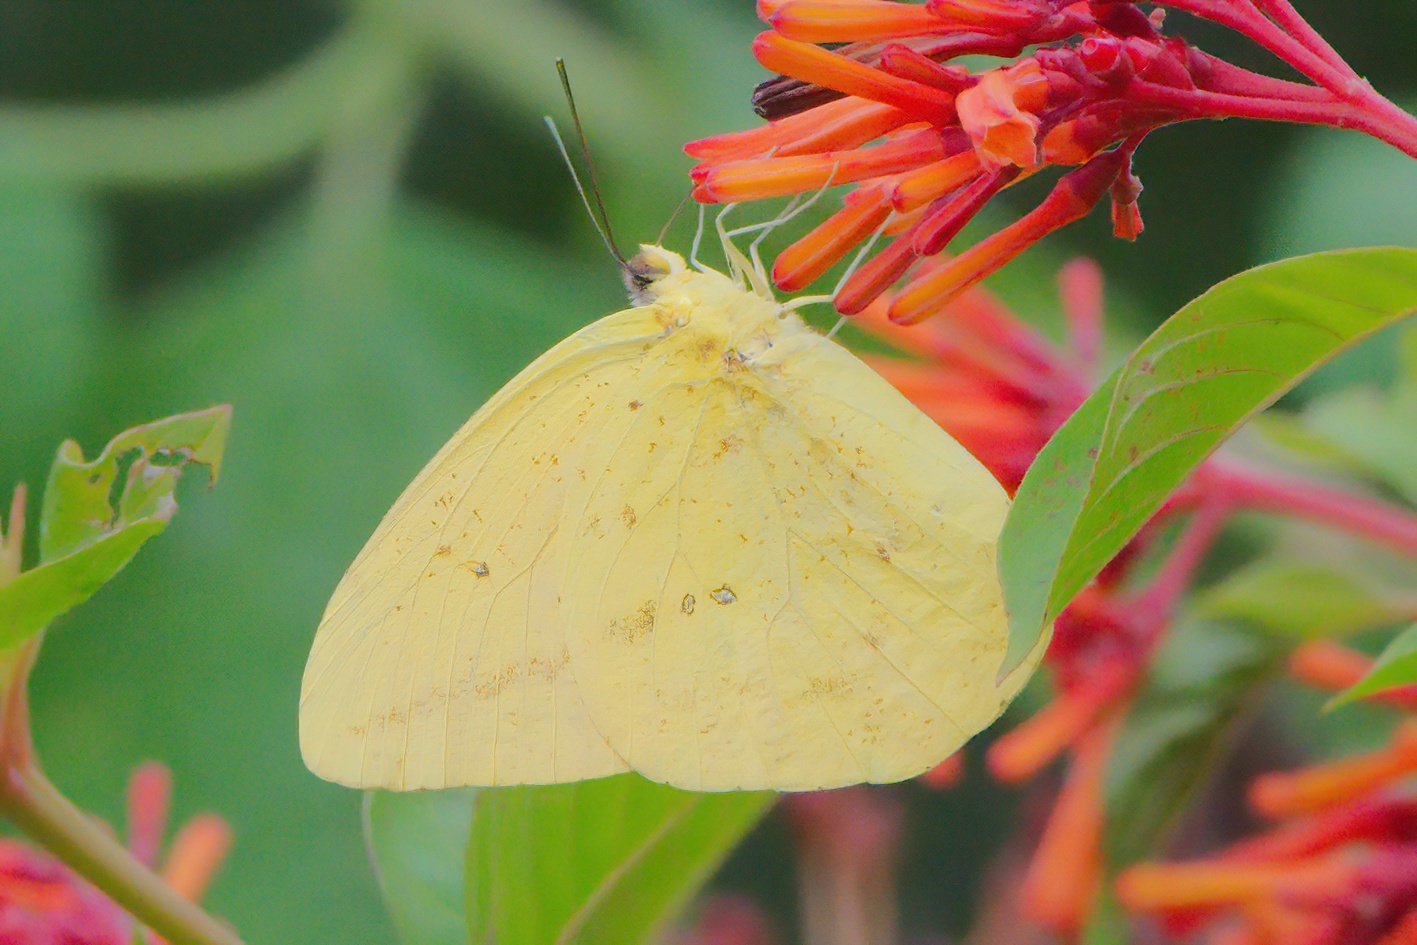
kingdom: Animalia
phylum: Arthropoda
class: Insecta
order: Lepidoptera
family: Pieridae
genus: Phoebis
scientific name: Phoebis agarithe
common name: Large orange sulphur
